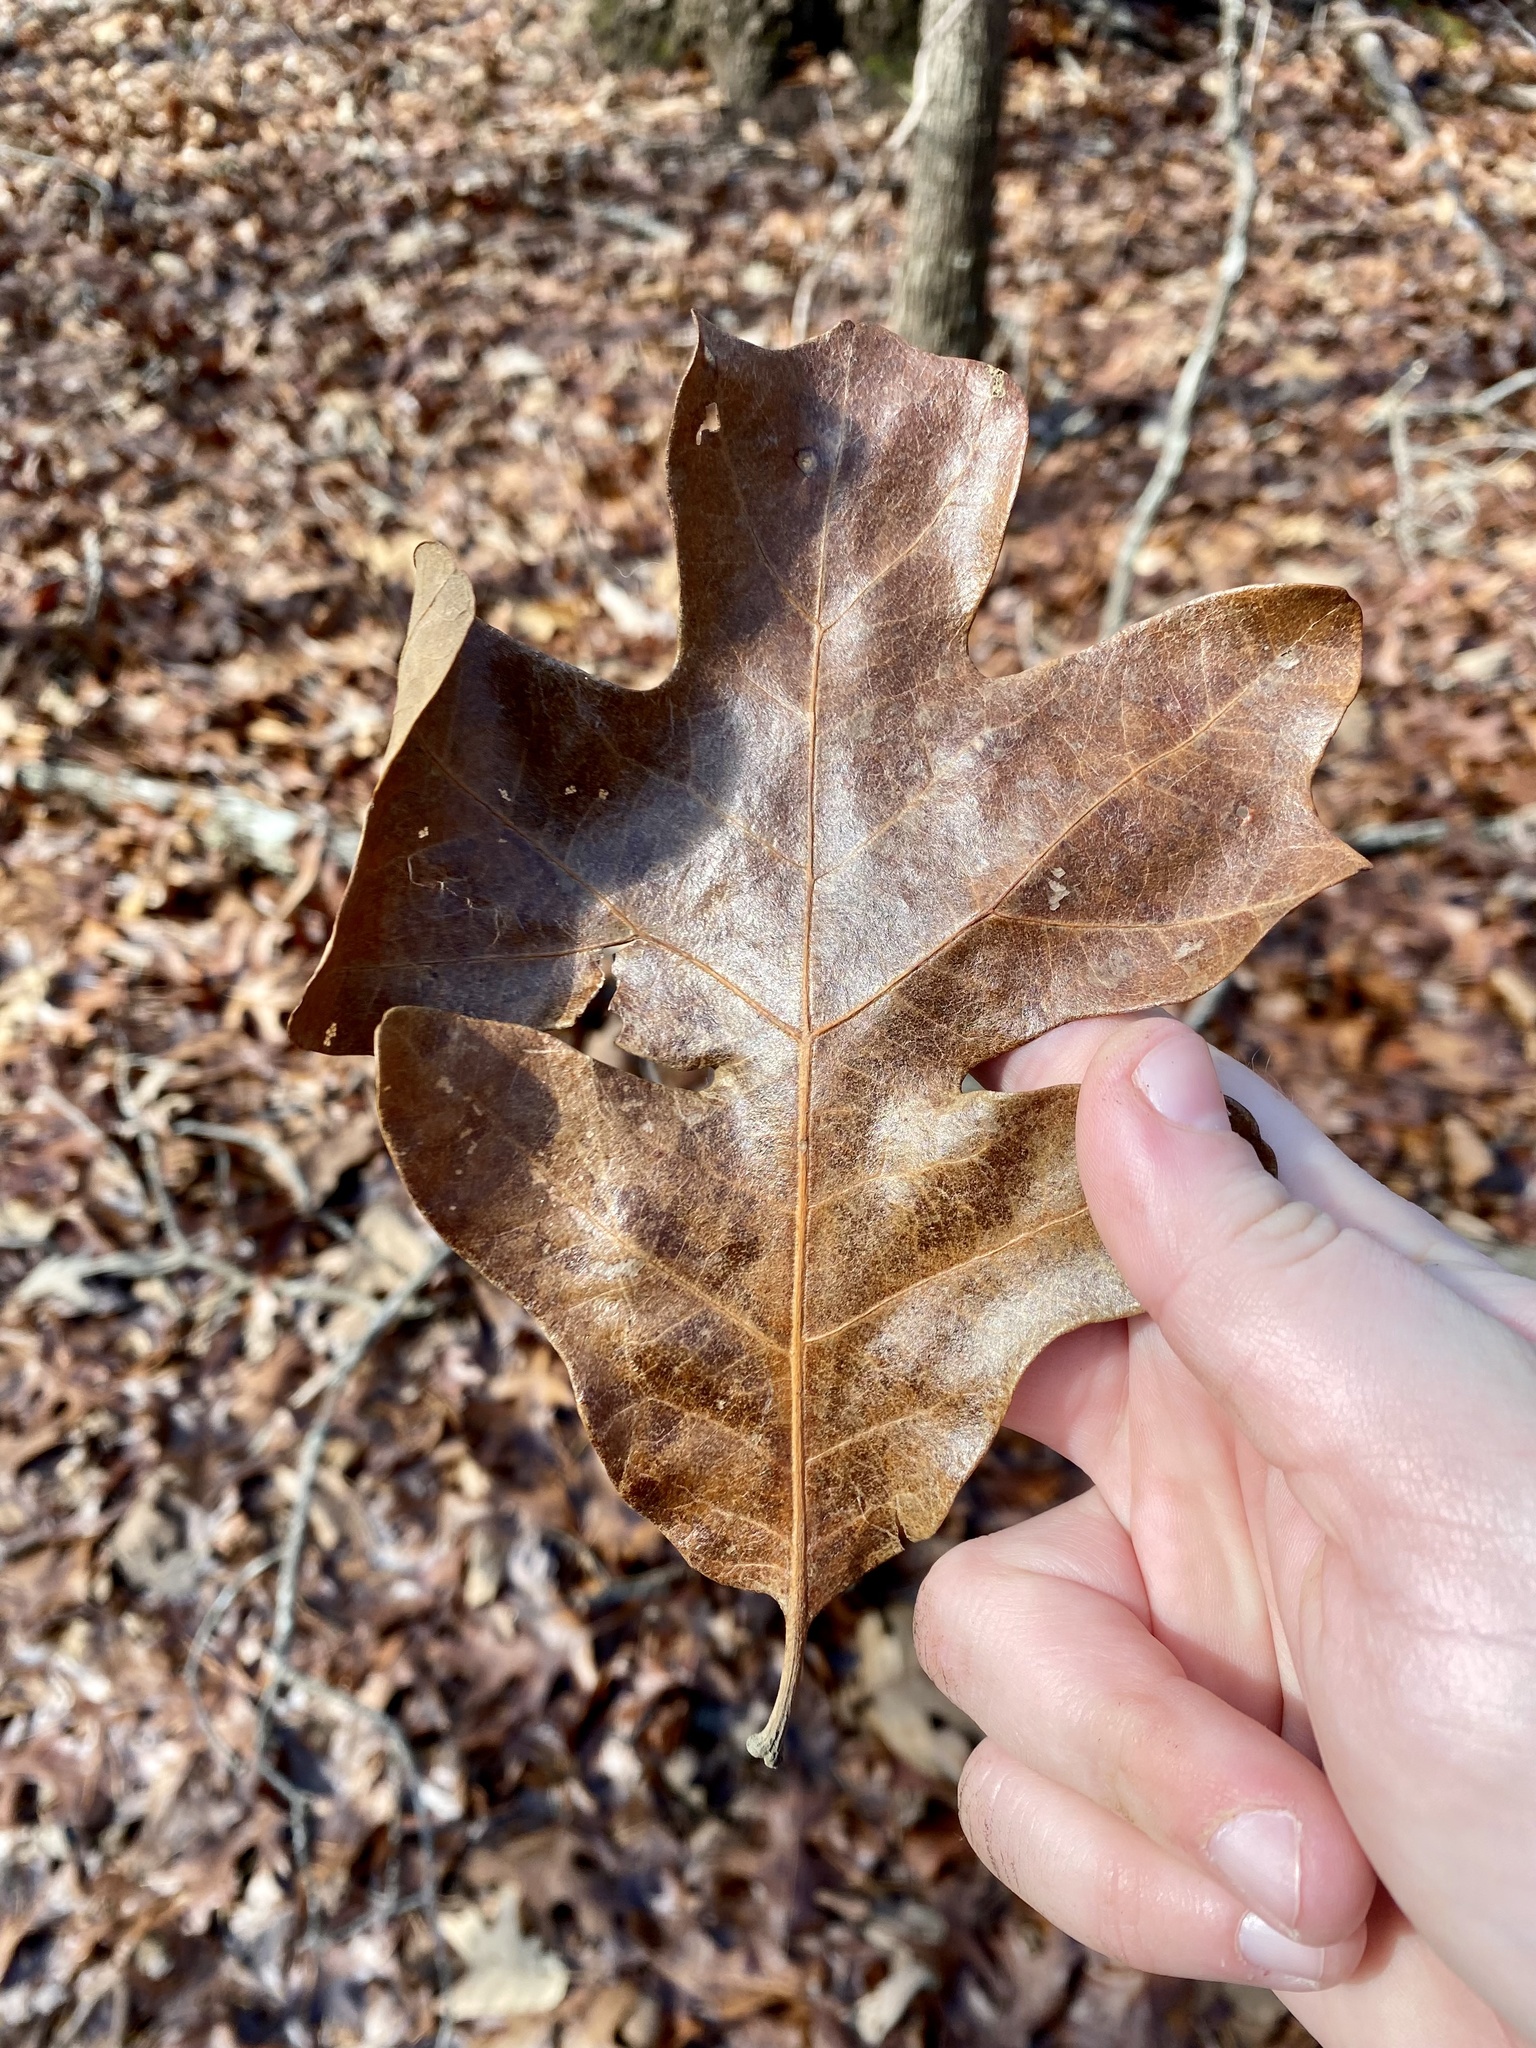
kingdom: Plantae
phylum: Tracheophyta
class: Magnoliopsida
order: Fagales
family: Fagaceae
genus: Quercus
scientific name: Quercus stellata
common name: Post oak
